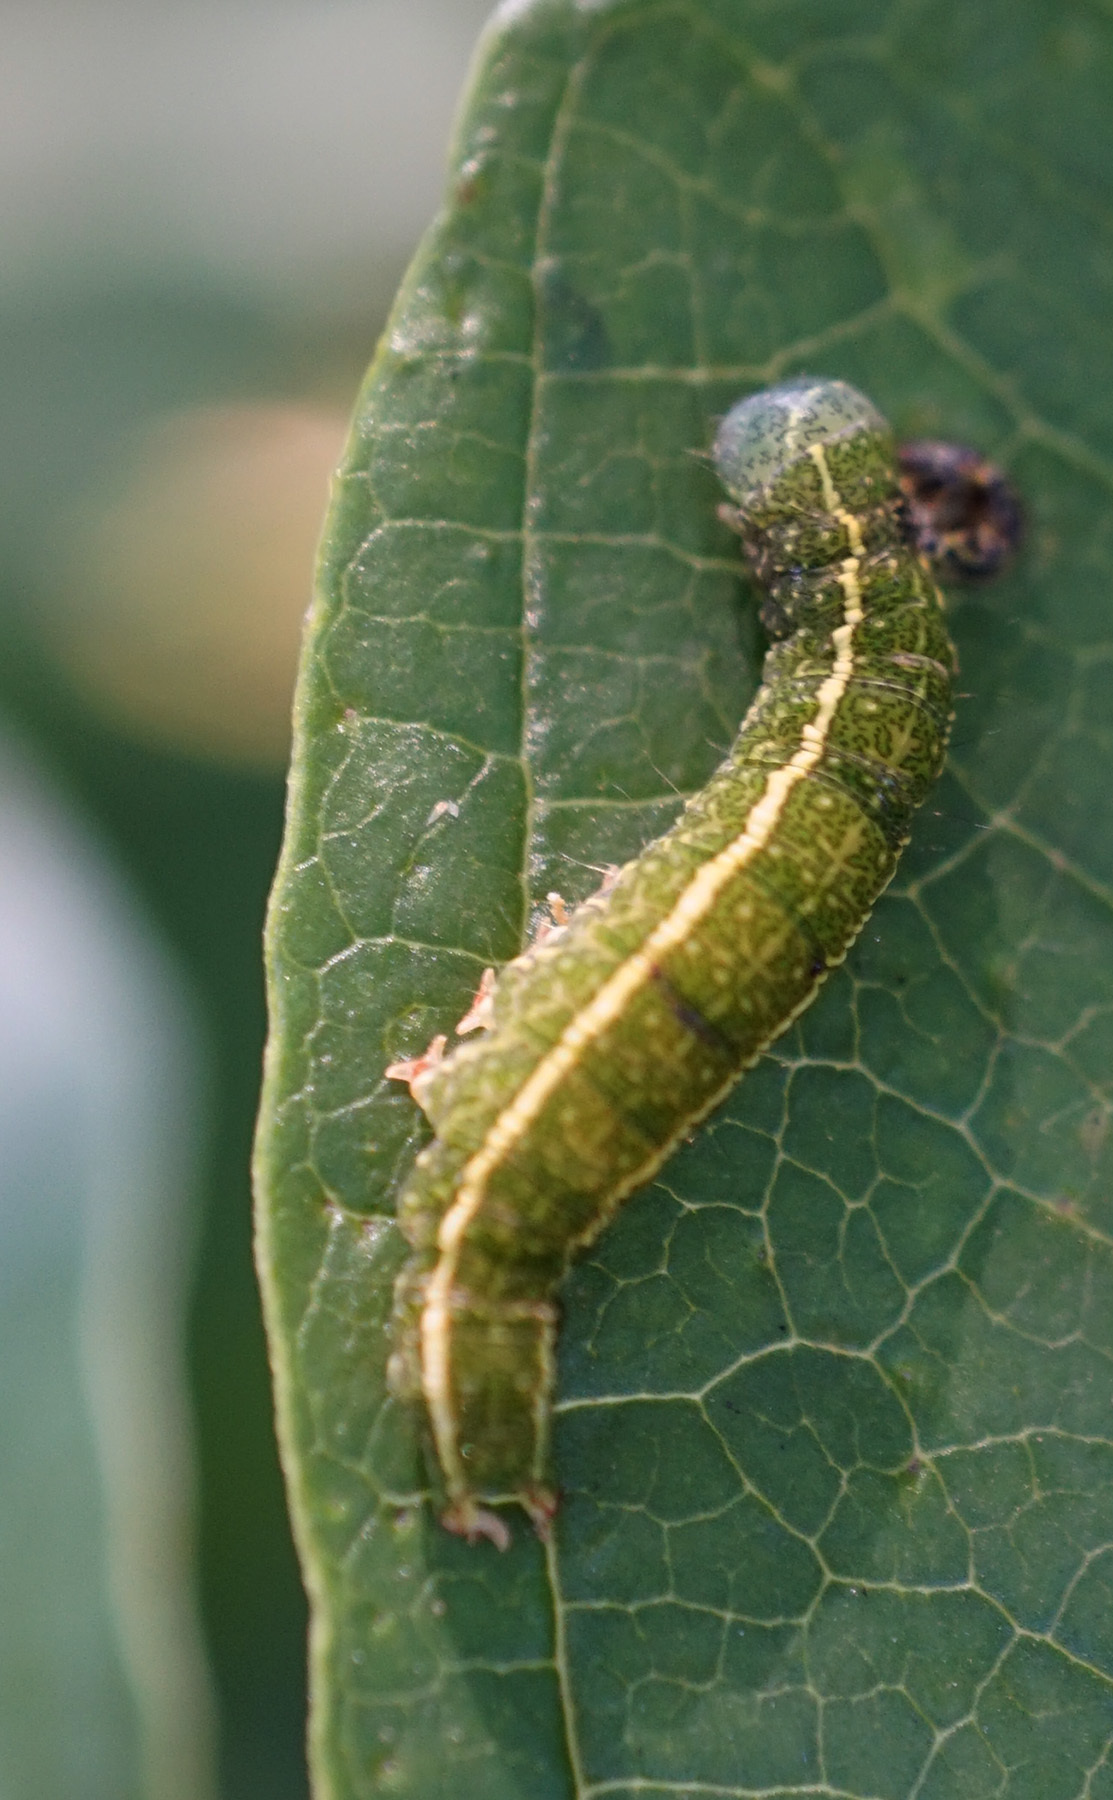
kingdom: Animalia
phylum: Arthropoda
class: Insecta
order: Lepidoptera
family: Erebidae
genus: Panopoda
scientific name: Panopoda rufimargo
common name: Red-lined panopoda moth
